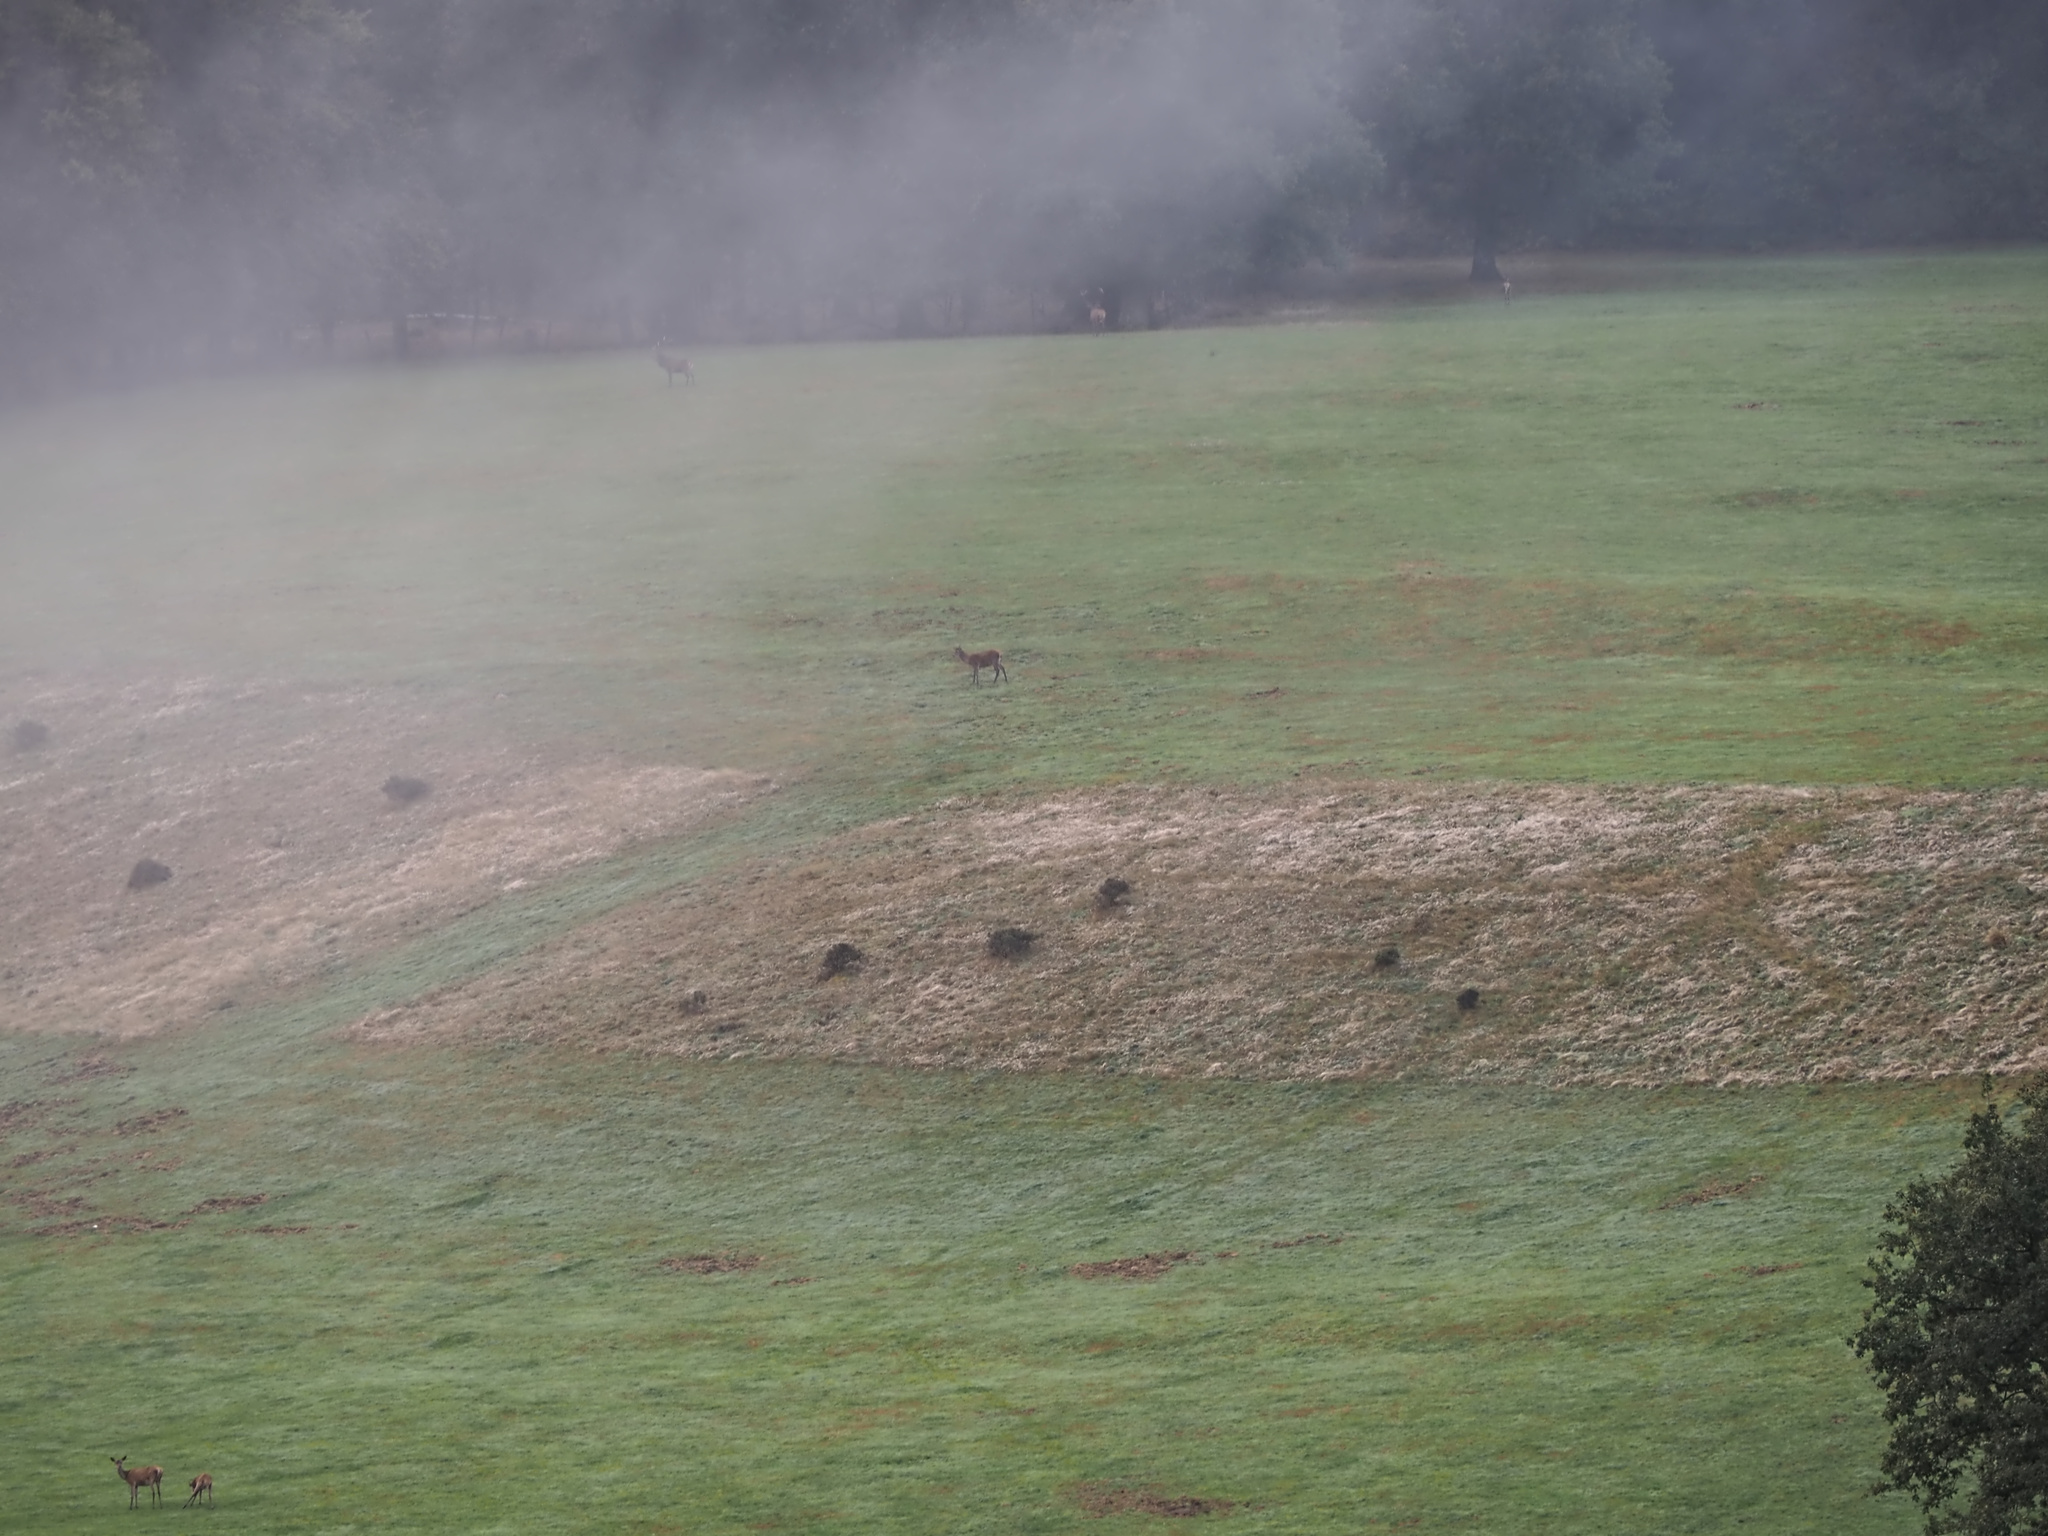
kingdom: Animalia
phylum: Chordata
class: Mammalia
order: Artiodactyla
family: Cervidae
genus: Cervus
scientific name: Cervus elaphus
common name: Red deer
